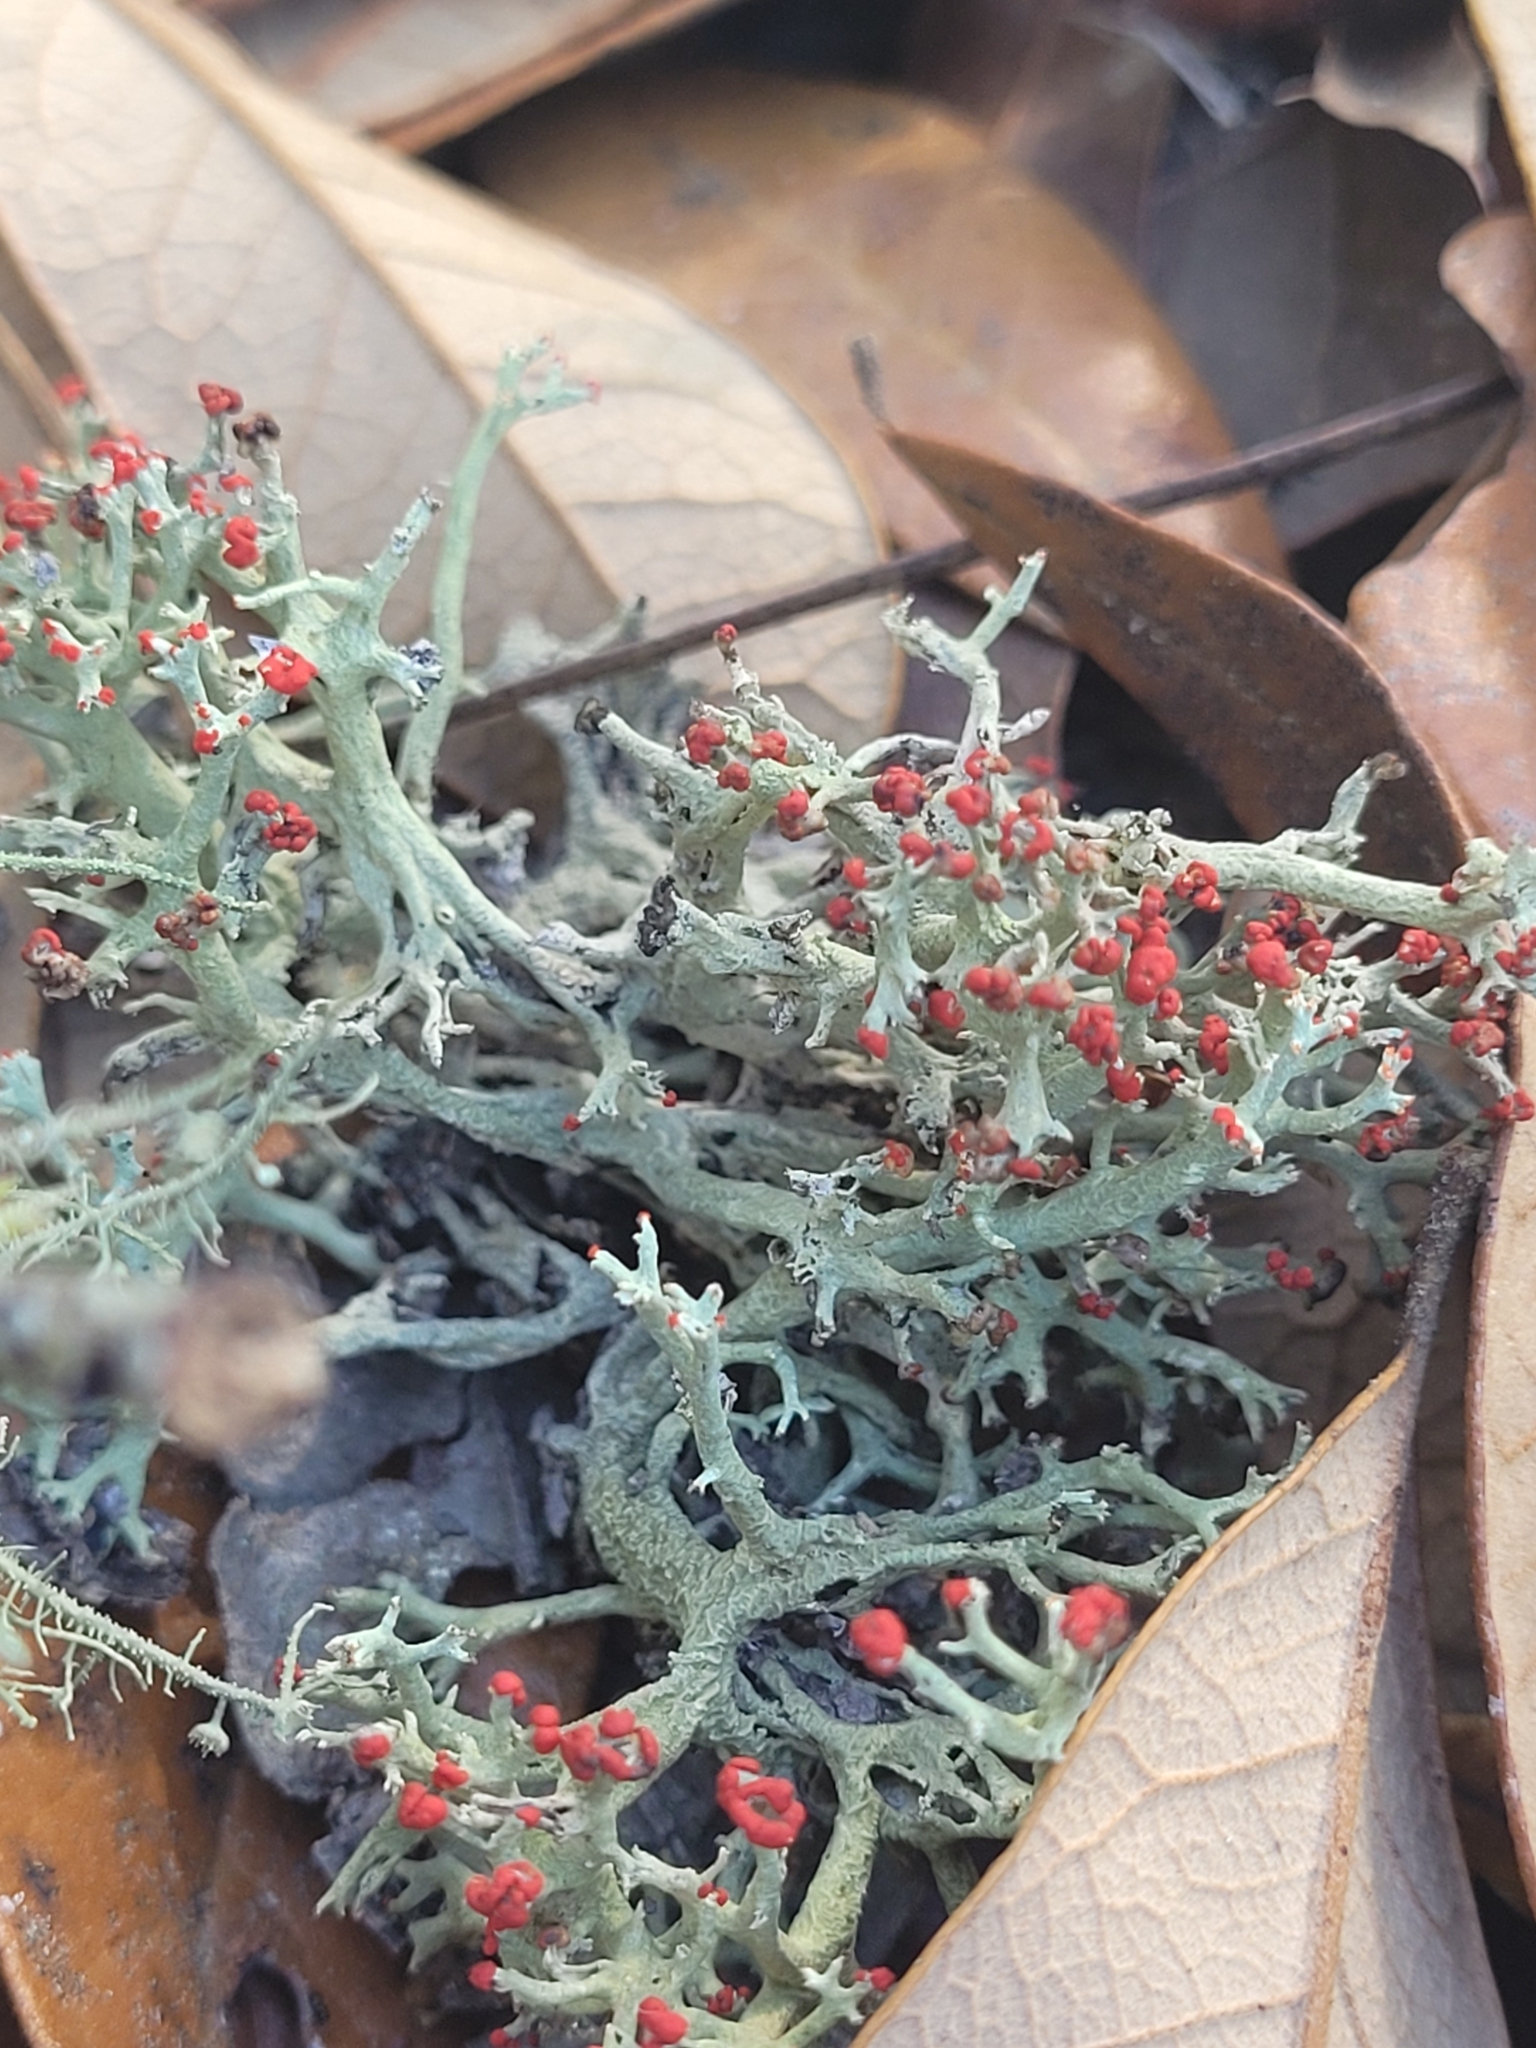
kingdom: Fungi
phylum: Ascomycota
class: Lecanoromycetes
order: Lecanorales
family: Cladoniaceae
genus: Cladonia
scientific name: Cladonia leporina
